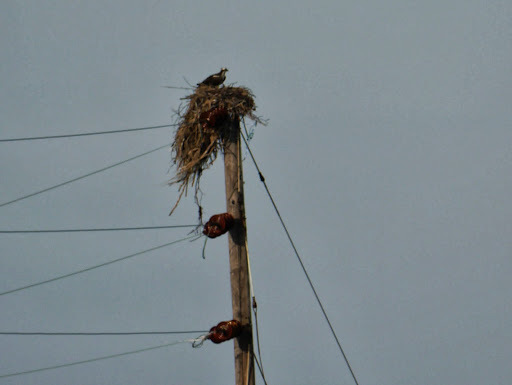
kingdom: Animalia
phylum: Chordata
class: Aves
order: Accipitriformes
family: Pandionidae
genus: Pandion
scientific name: Pandion haliaetus
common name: Osprey
